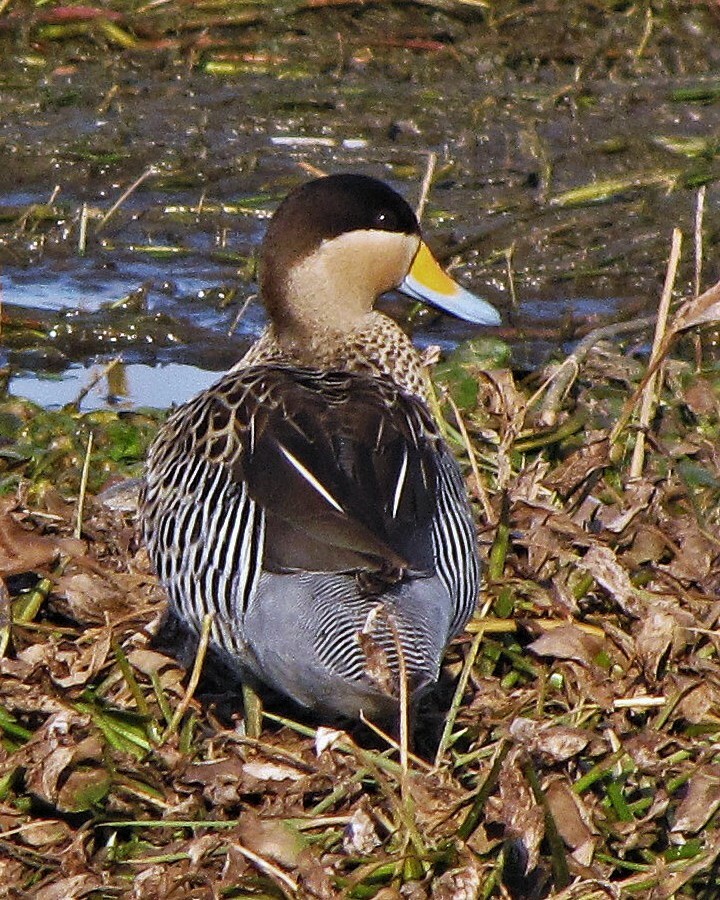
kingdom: Animalia
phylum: Chordata
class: Aves
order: Anseriformes
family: Anatidae
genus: Spatula
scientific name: Spatula versicolor
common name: Silver teal
